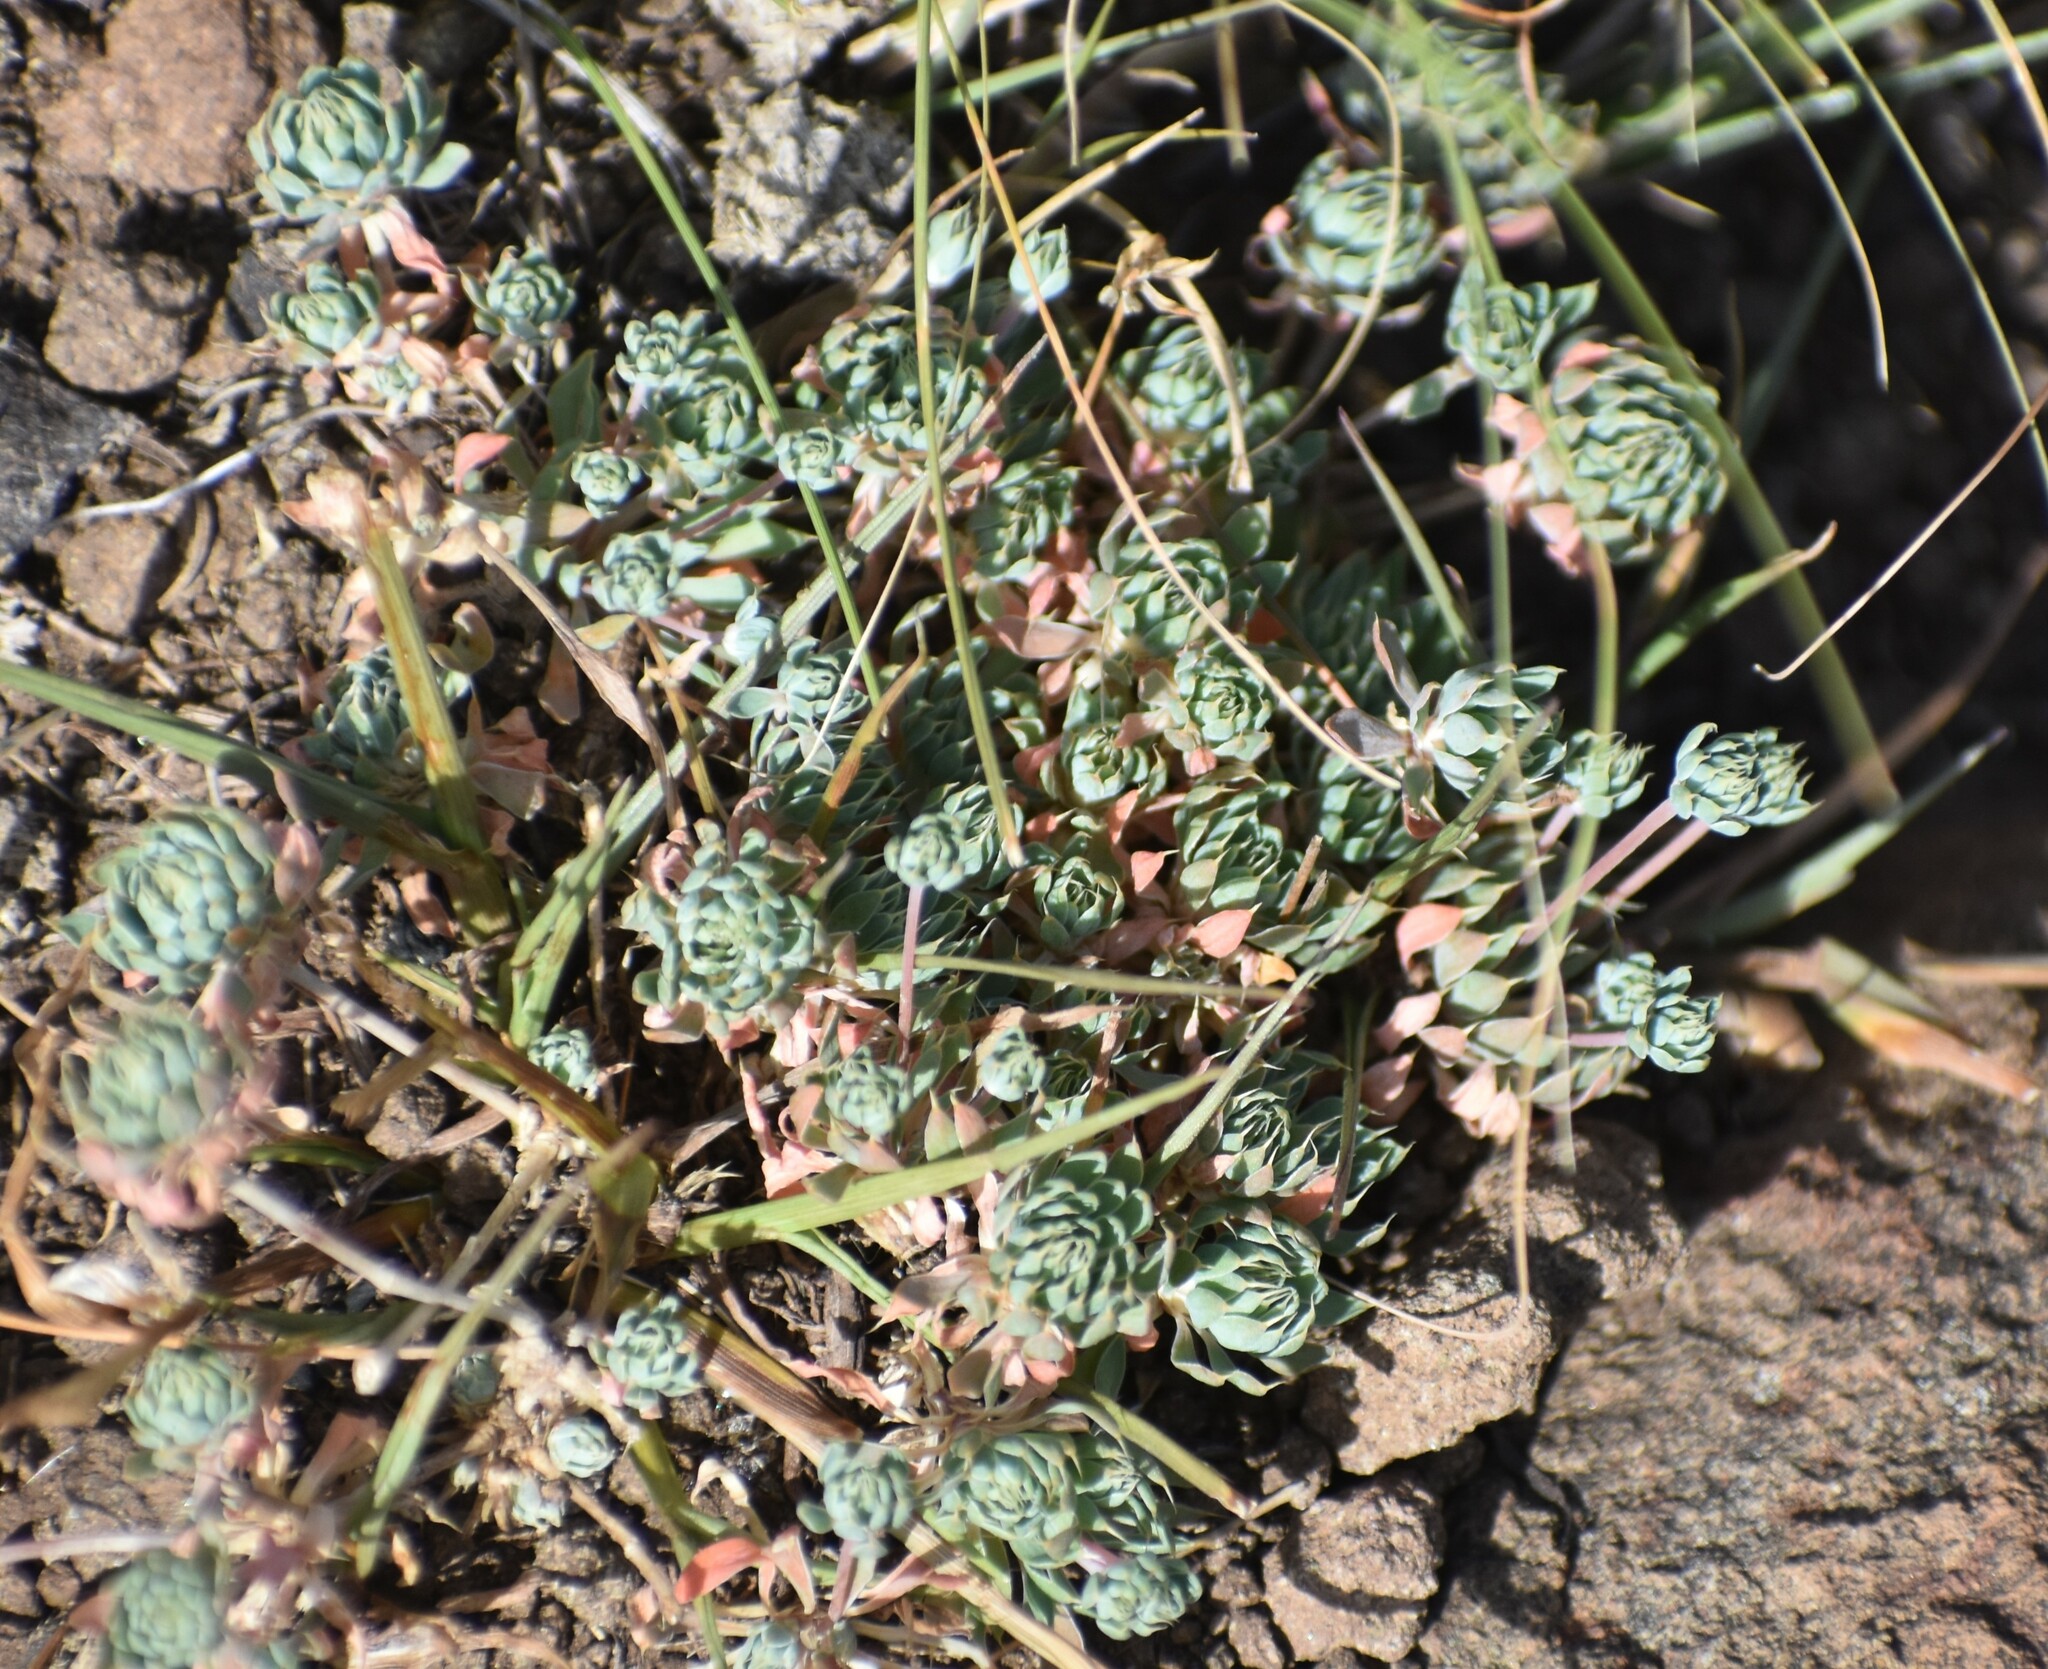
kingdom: Plantae
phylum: Tracheophyta
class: Magnoliopsida
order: Caryophyllales
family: Molluginaceae
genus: Psammotropha
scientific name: Psammotropha mucronata
